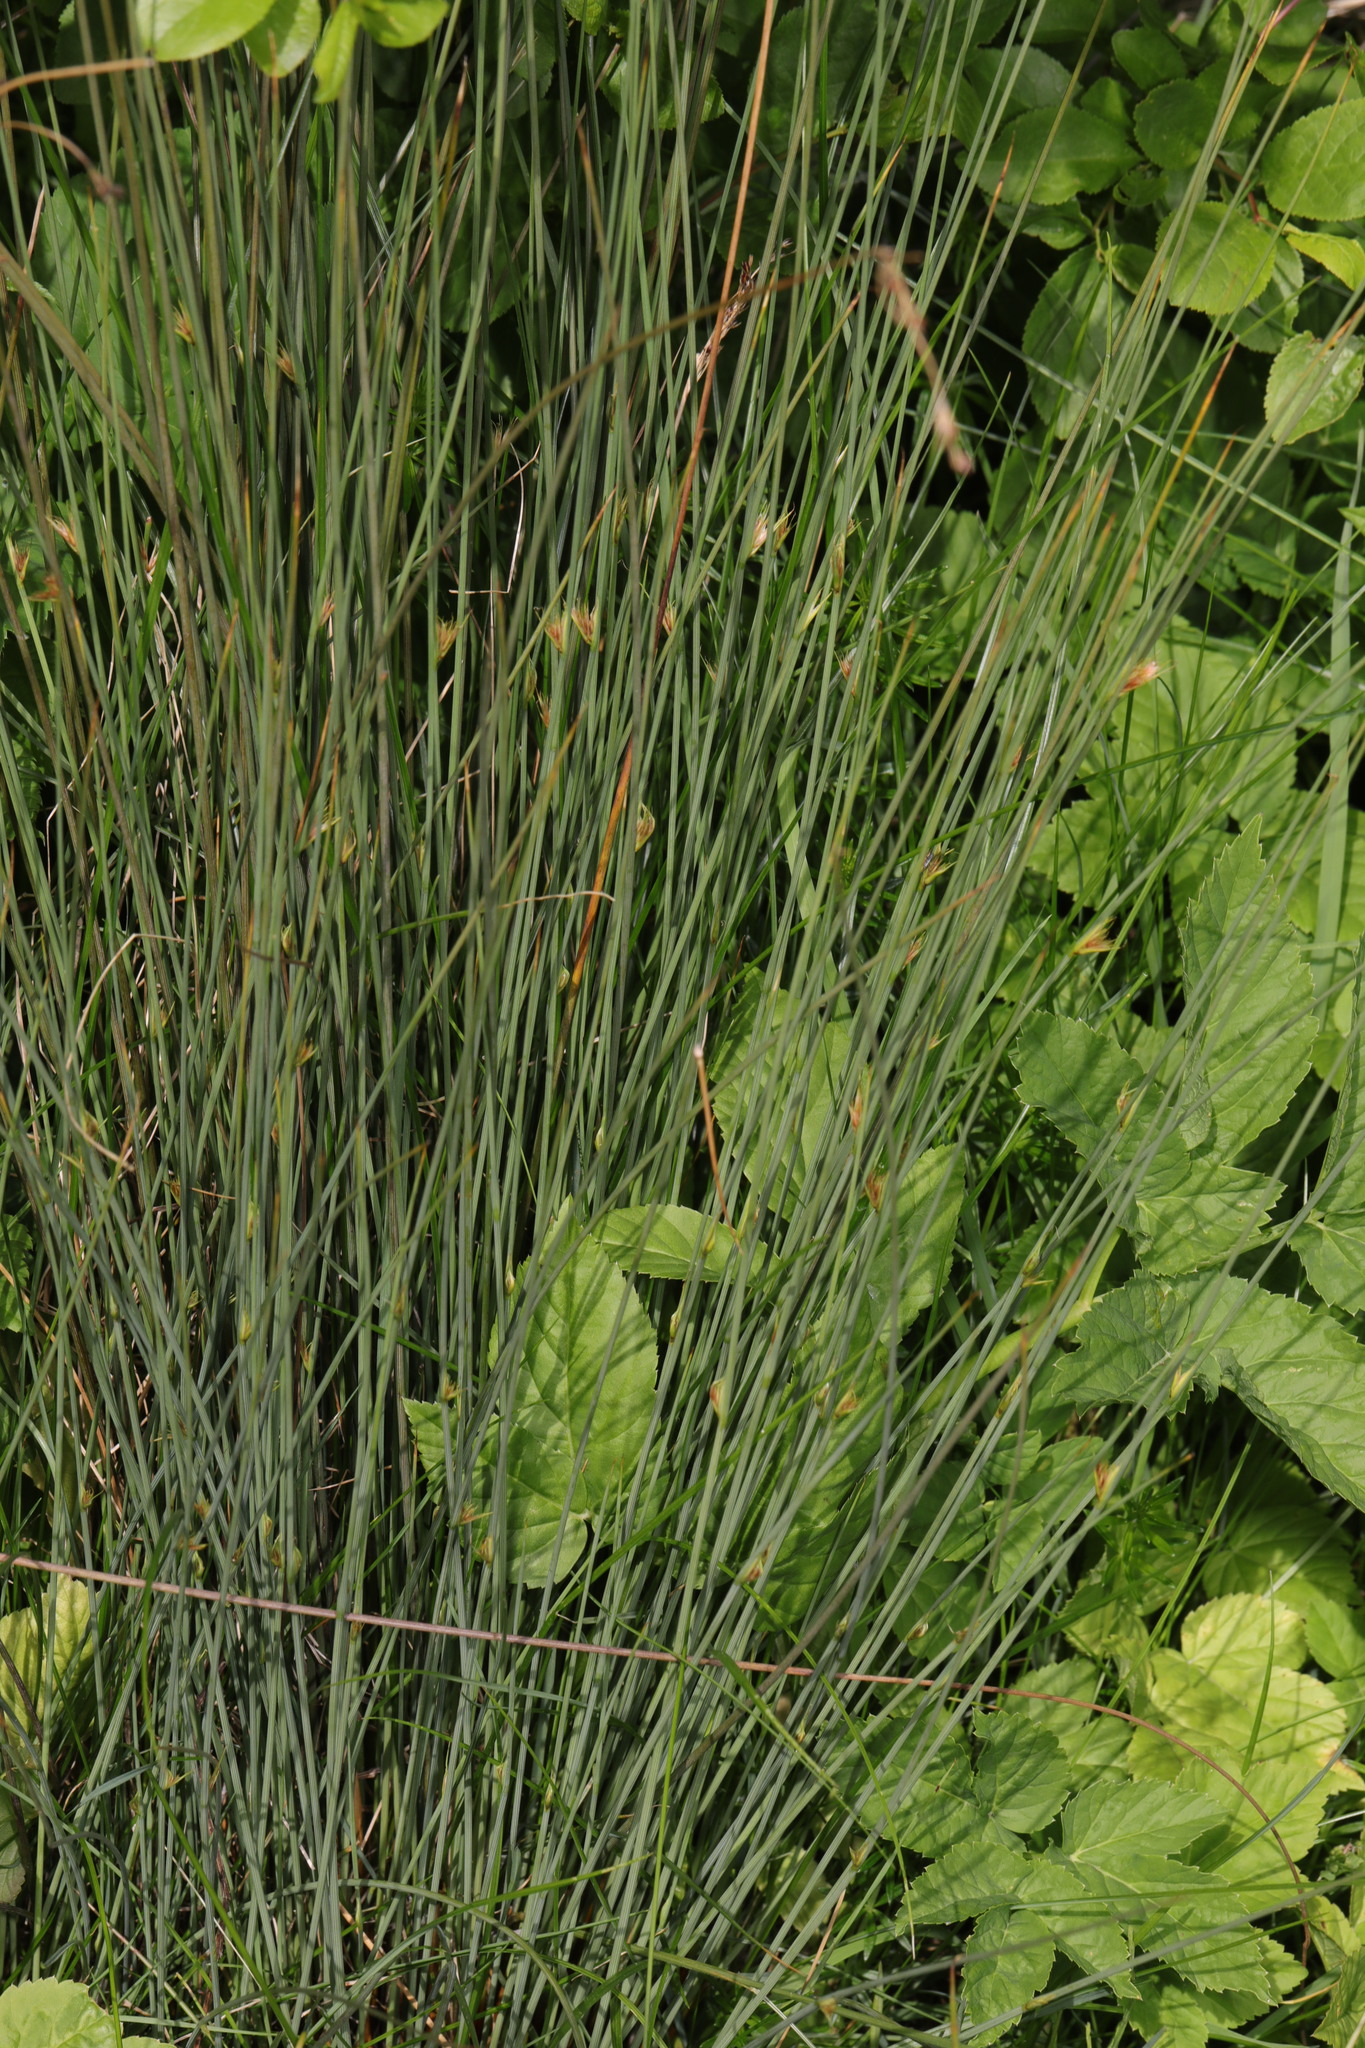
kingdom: Plantae
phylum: Tracheophyta
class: Liliopsida
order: Poales
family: Juncaceae
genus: Juncus
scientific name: Juncus inflexus
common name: Hard rush
